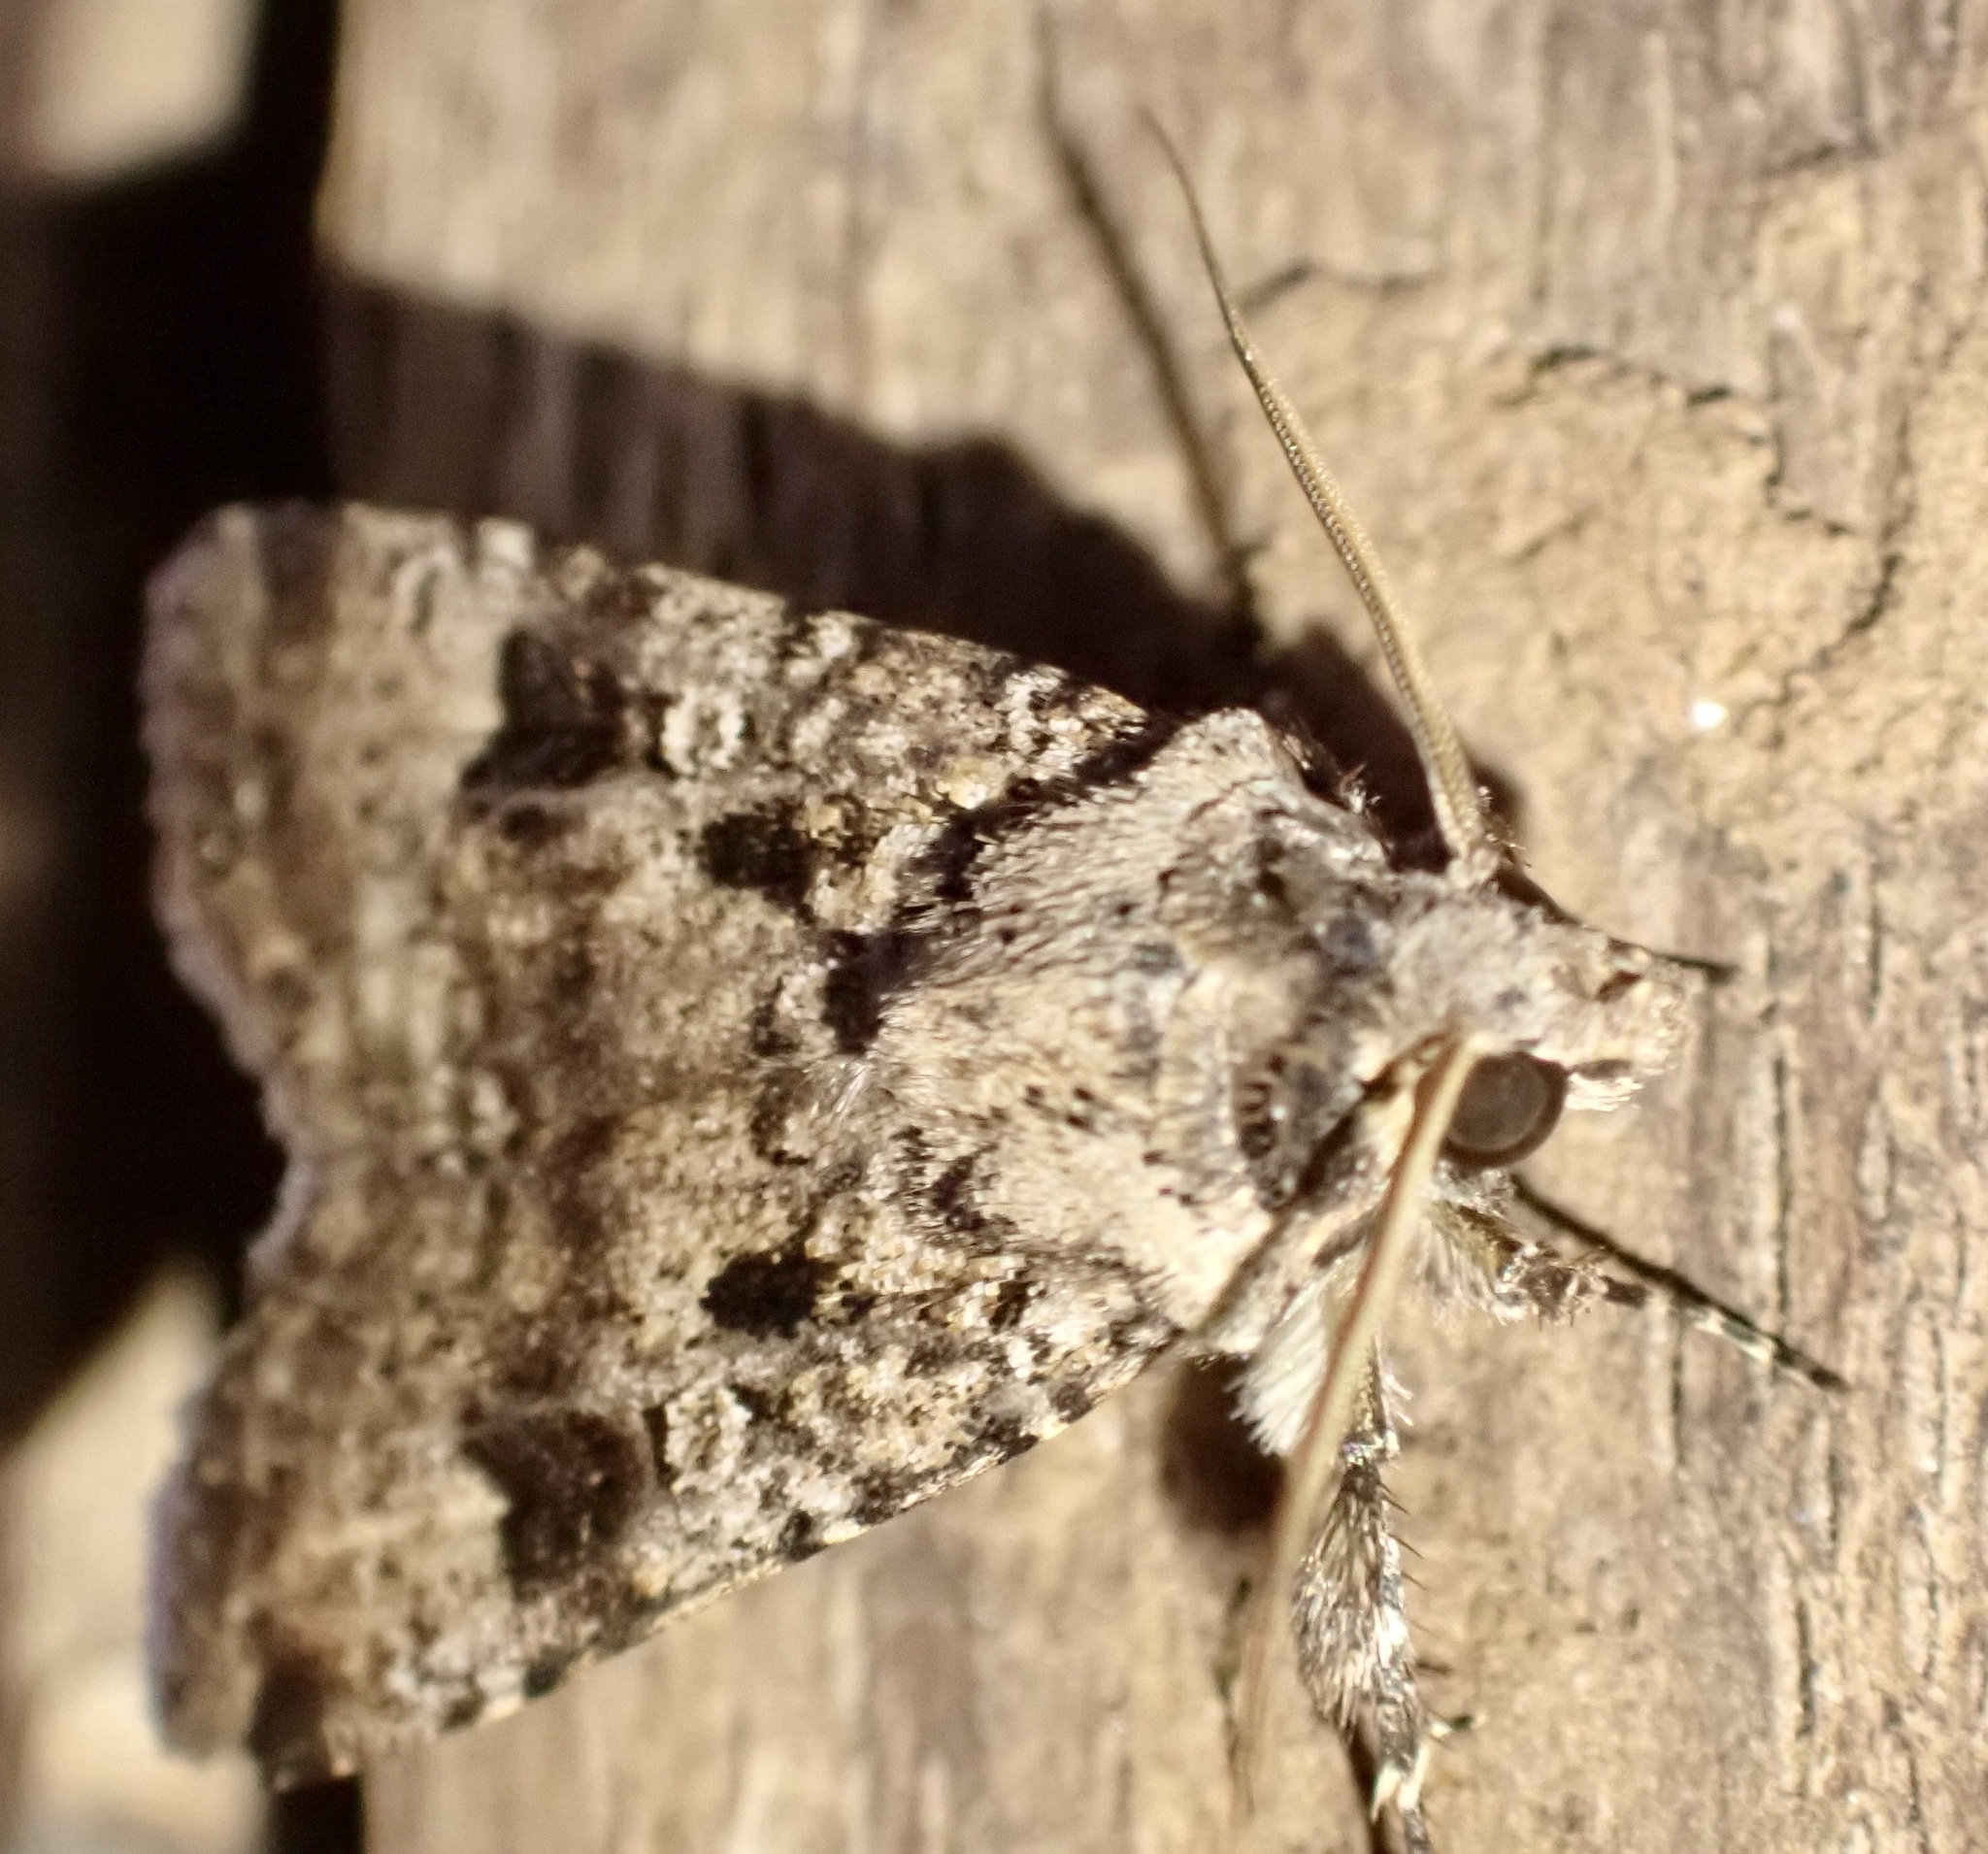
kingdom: Animalia
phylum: Arthropoda
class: Insecta
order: Lepidoptera
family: Noctuidae
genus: Agrotis
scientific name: Agrotis trux
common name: Crescent dart
